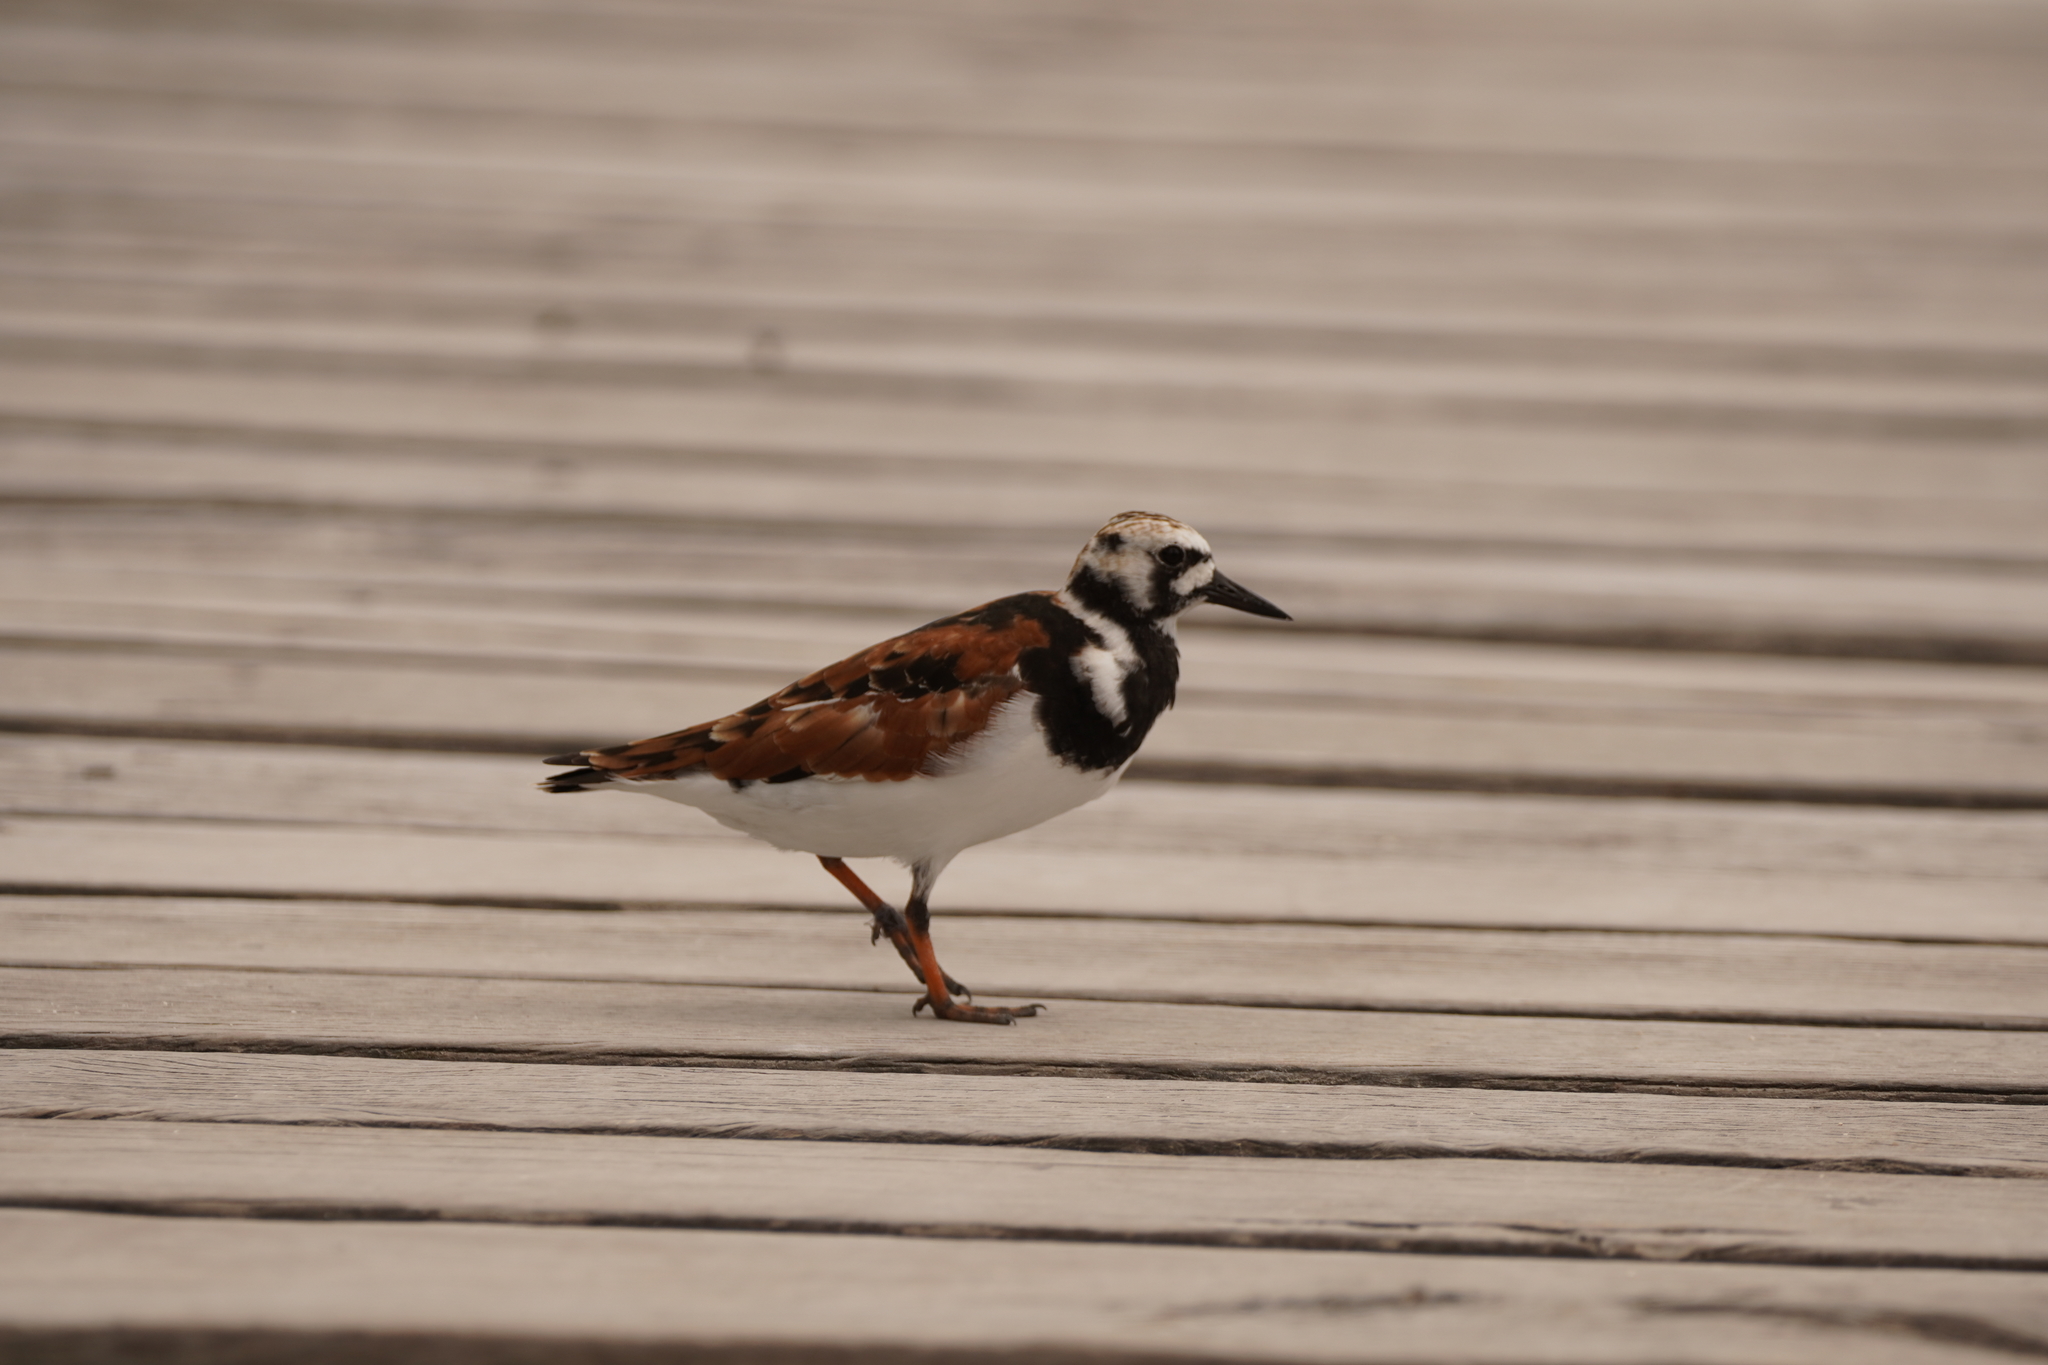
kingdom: Animalia
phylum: Chordata
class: Aves
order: Charadriiformes
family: Scolopacidae
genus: Arenaria
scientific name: Arenaria interpres
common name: Ruddy turnstone
